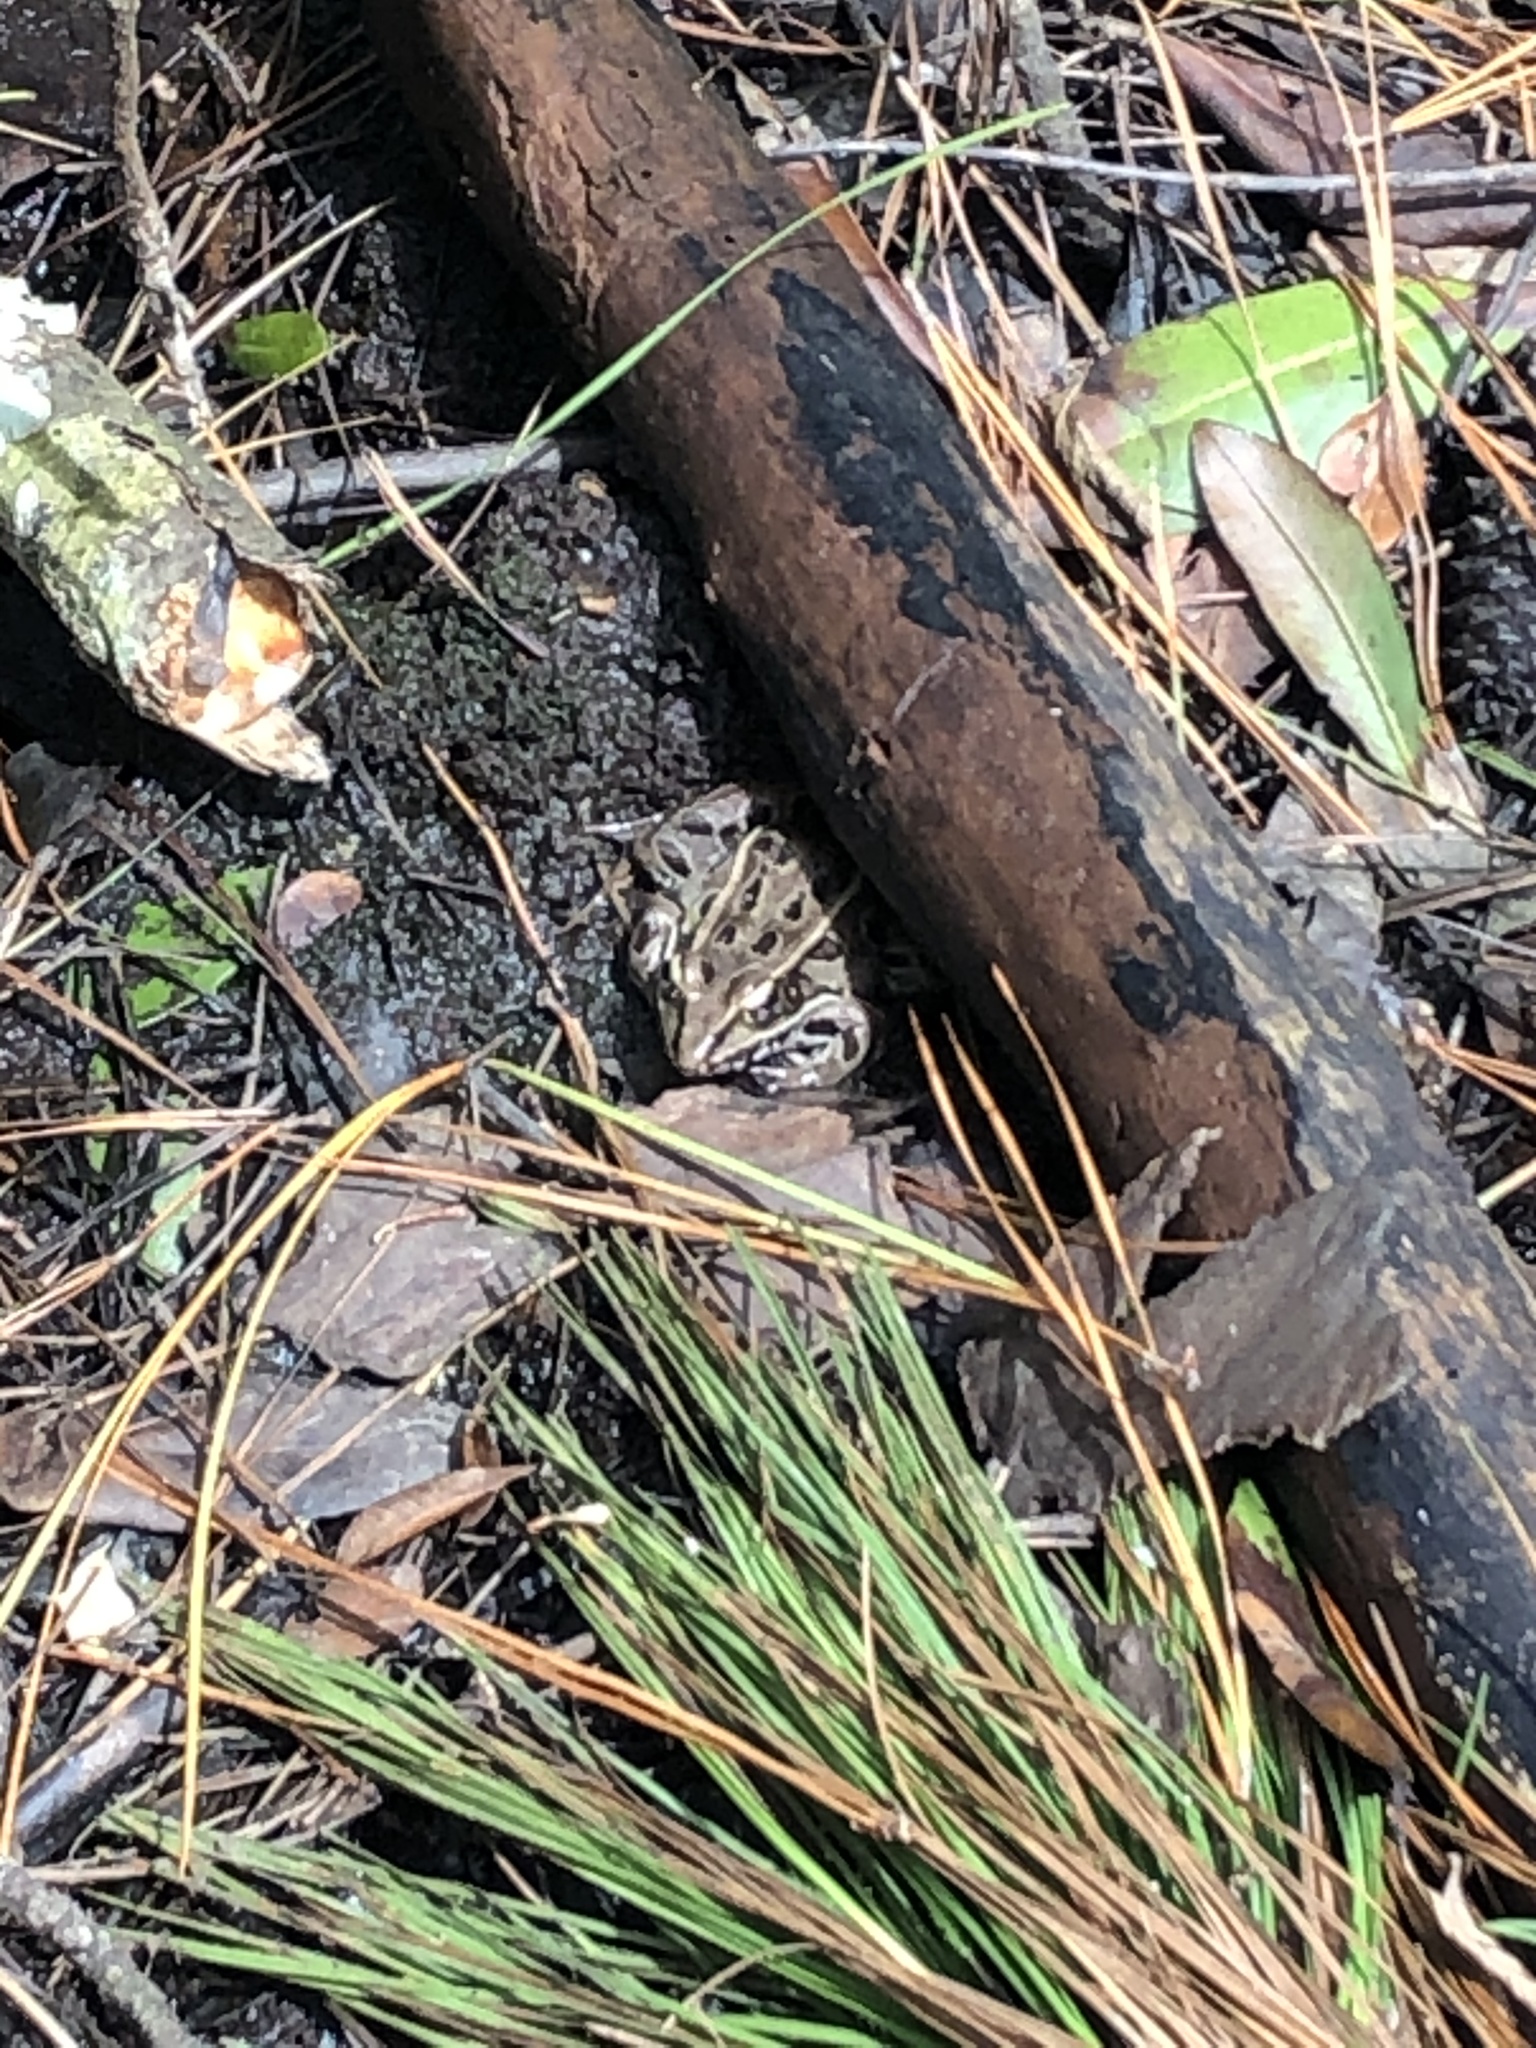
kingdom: Animalia
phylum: Chordata
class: Amphibia
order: Anura
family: Ranidae
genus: Lithobates
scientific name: Lithobates sphenocephalus
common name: Southern leopard frog
